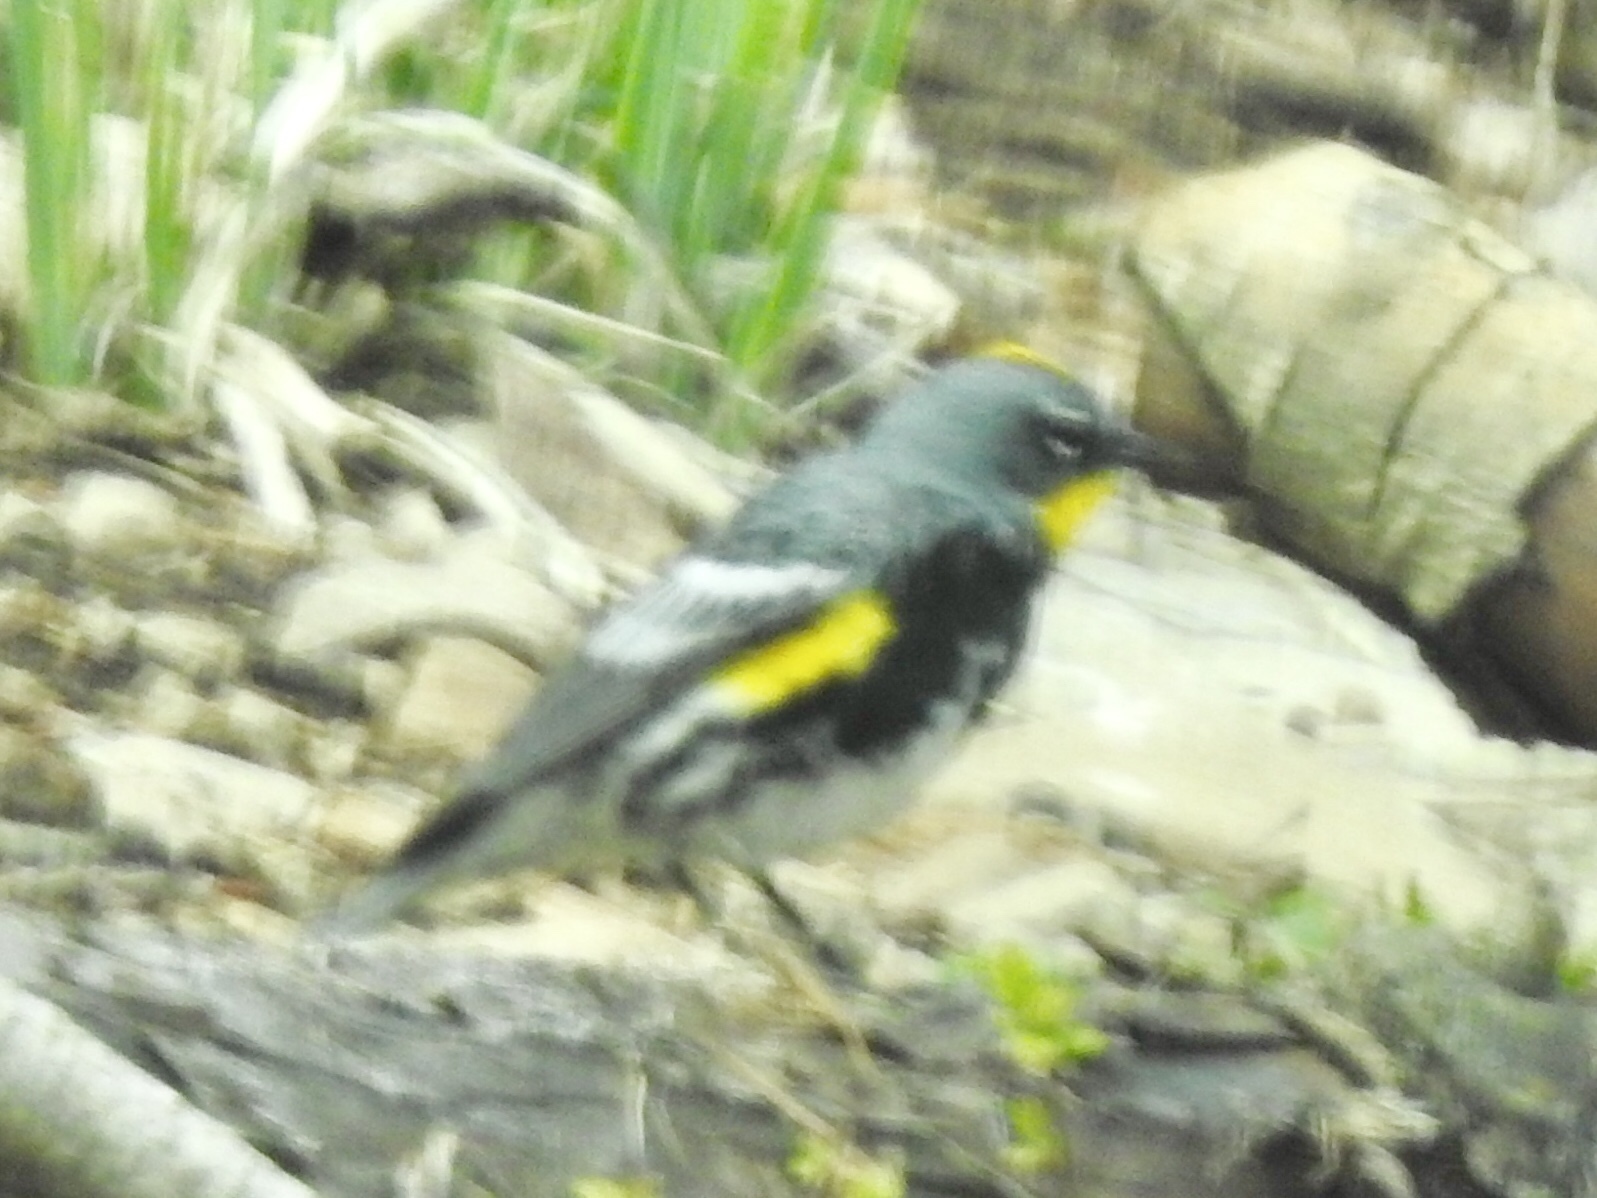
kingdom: Animalia
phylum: Chordata
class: Aves
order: Passeriformes
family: Parulidae
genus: Setophaga
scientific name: Setophaga coronata
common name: Myrtle warbler
